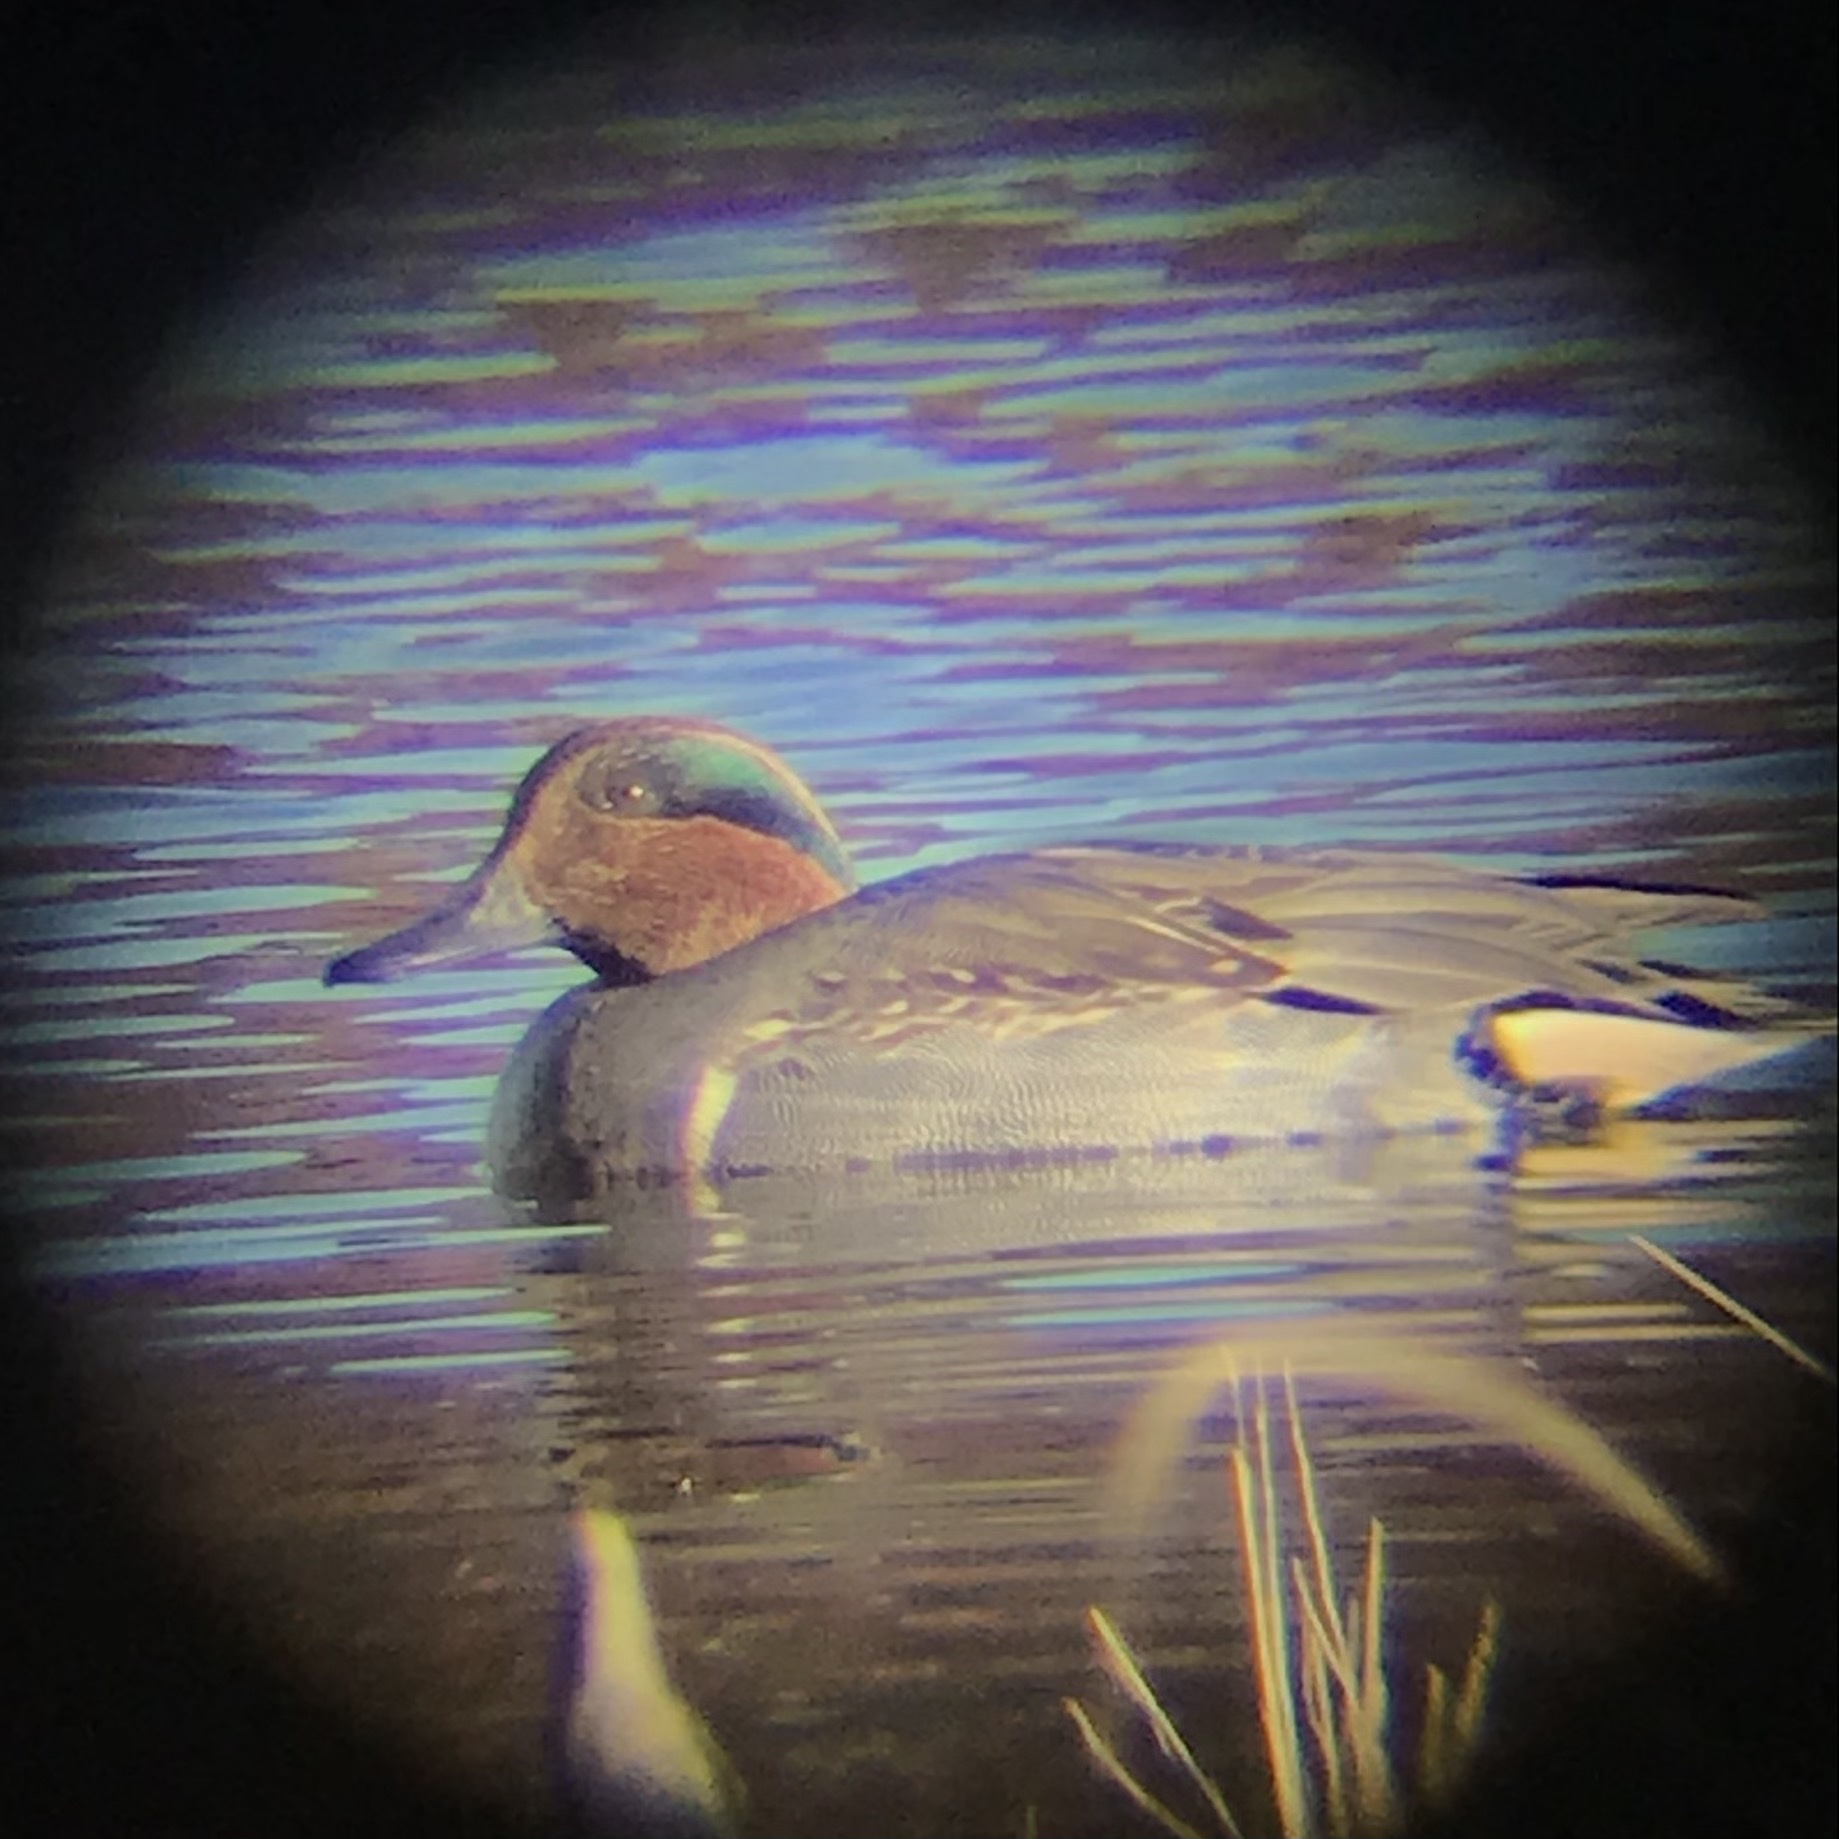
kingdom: Animalia
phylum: Chordata
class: Aves
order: Anseriformes
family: Anatidae
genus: Anas
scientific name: Anas crecca
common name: Eurasian teal
